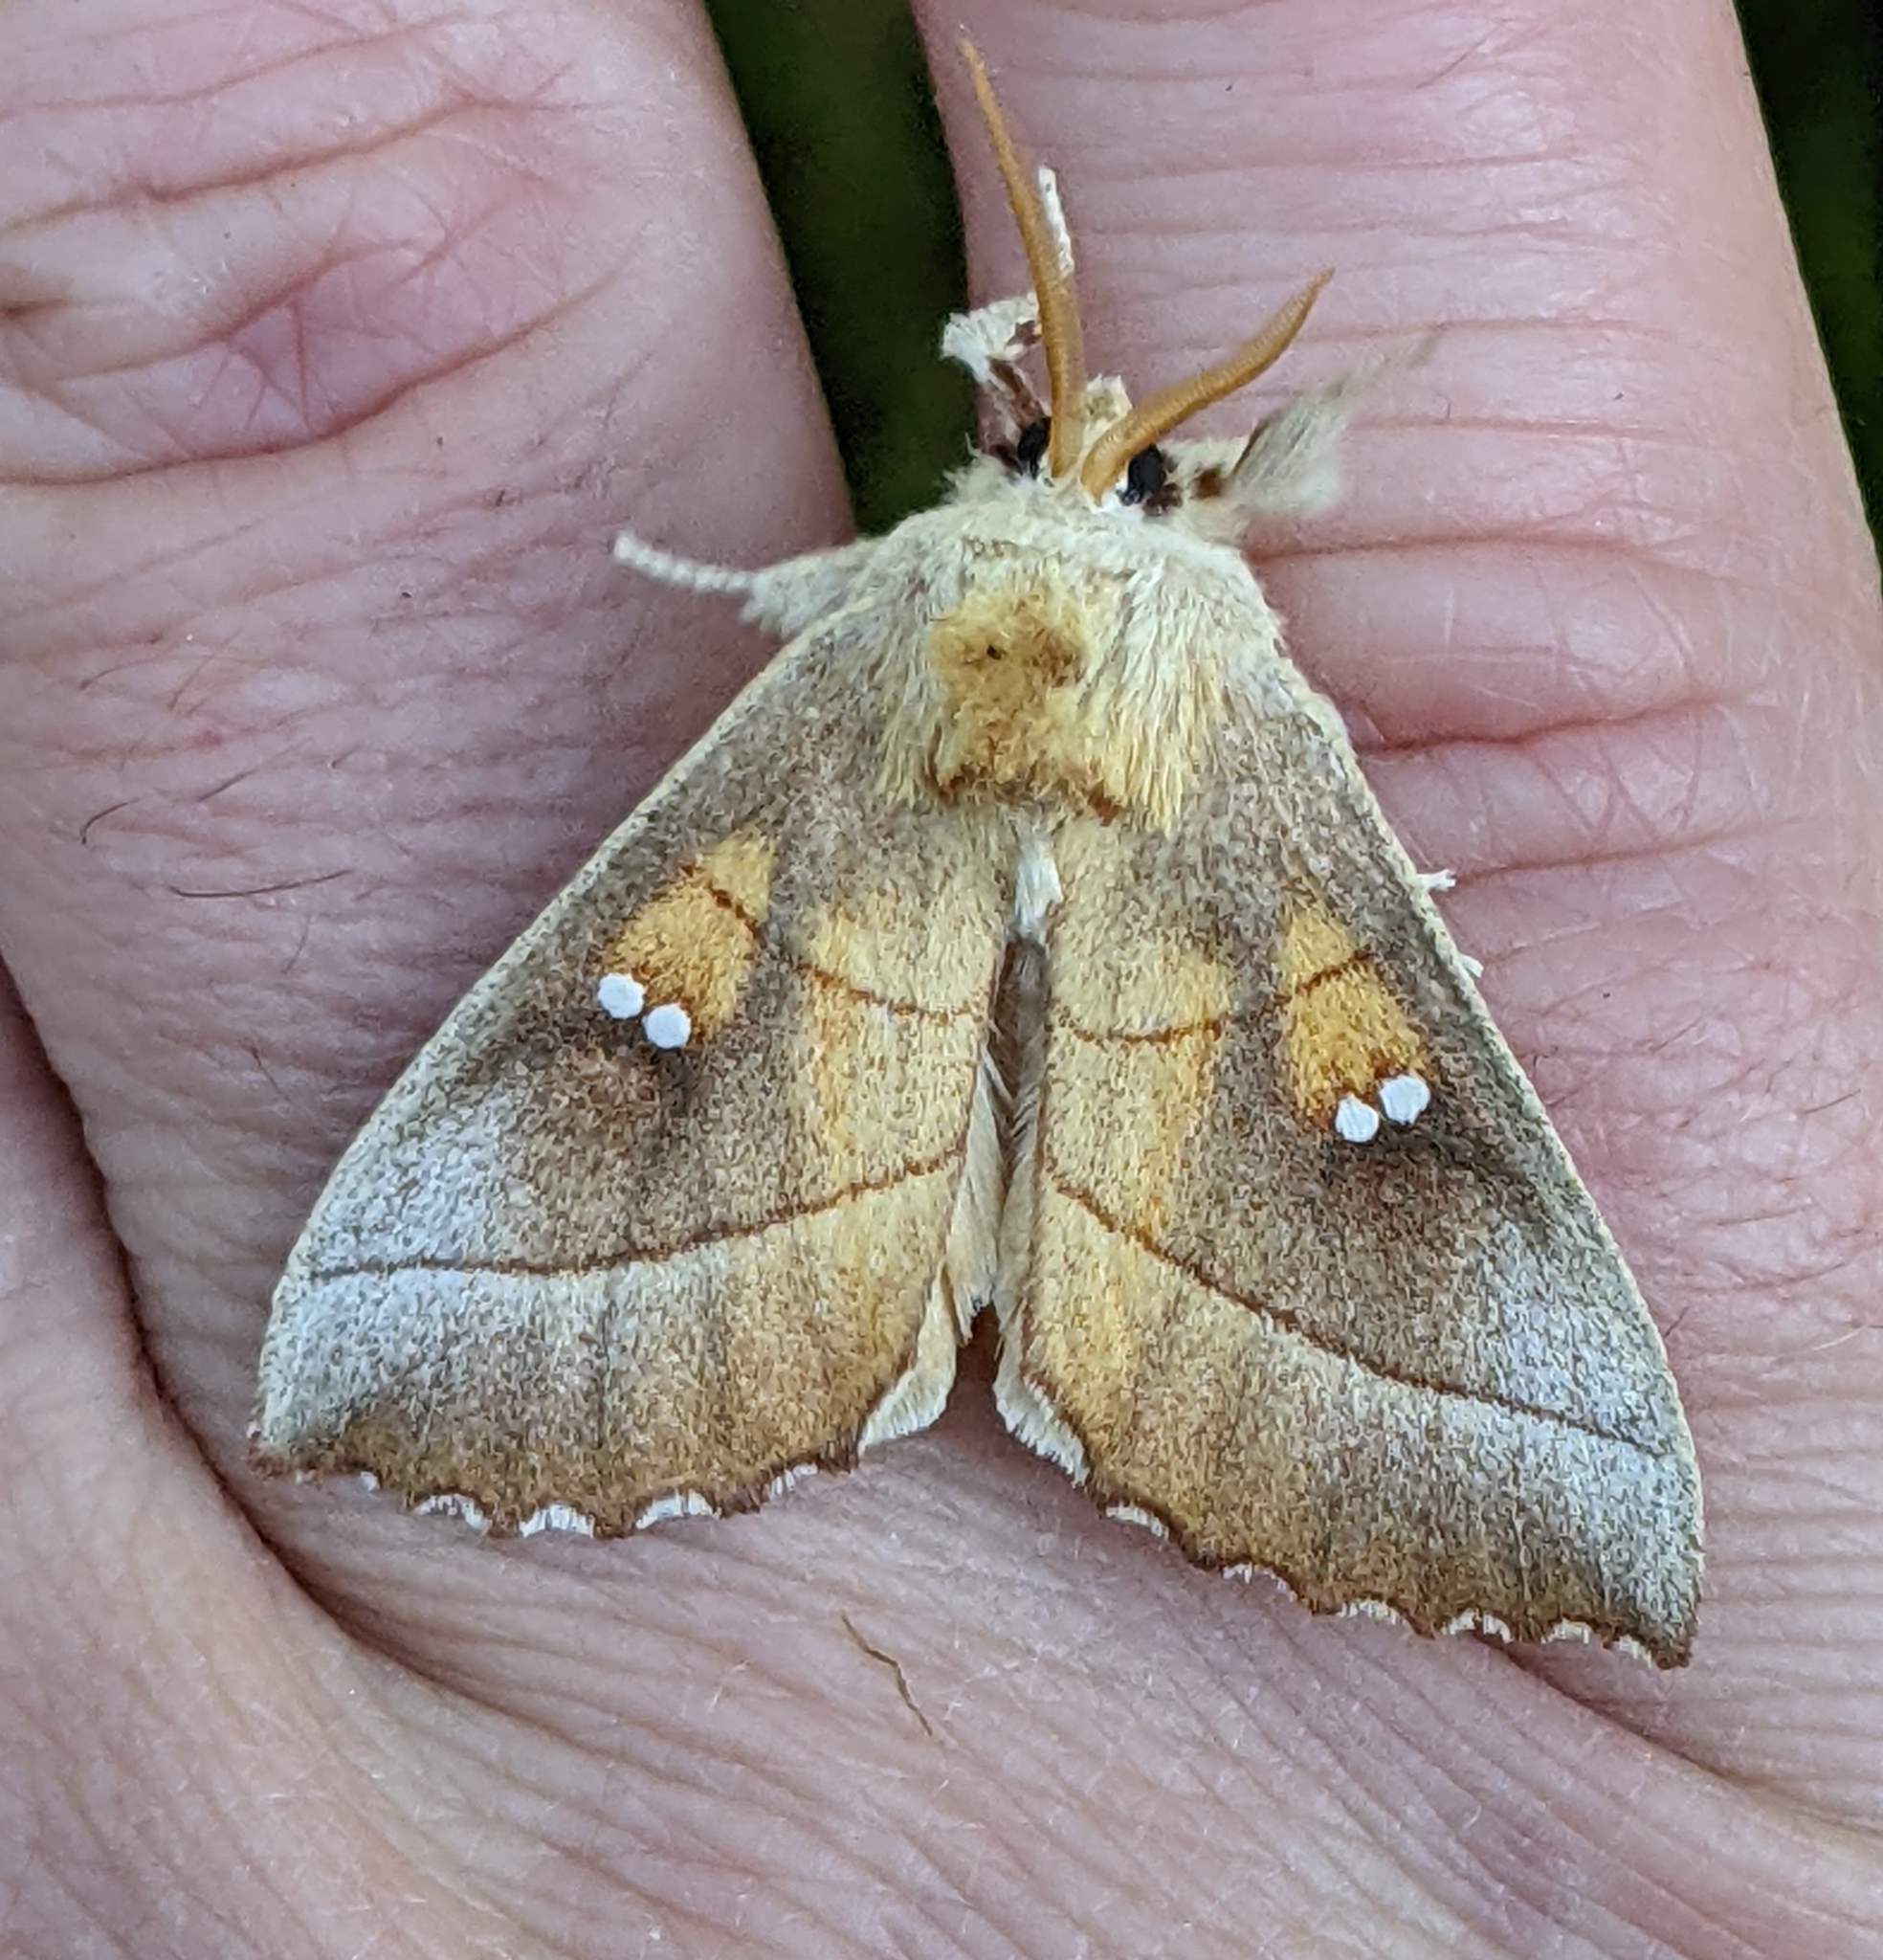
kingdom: Animalia
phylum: Arthropoda
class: Insecta
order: Lepidoptera
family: Notodontidae
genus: Nadata
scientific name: Nadata gibbosa
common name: White-dotted prominent
